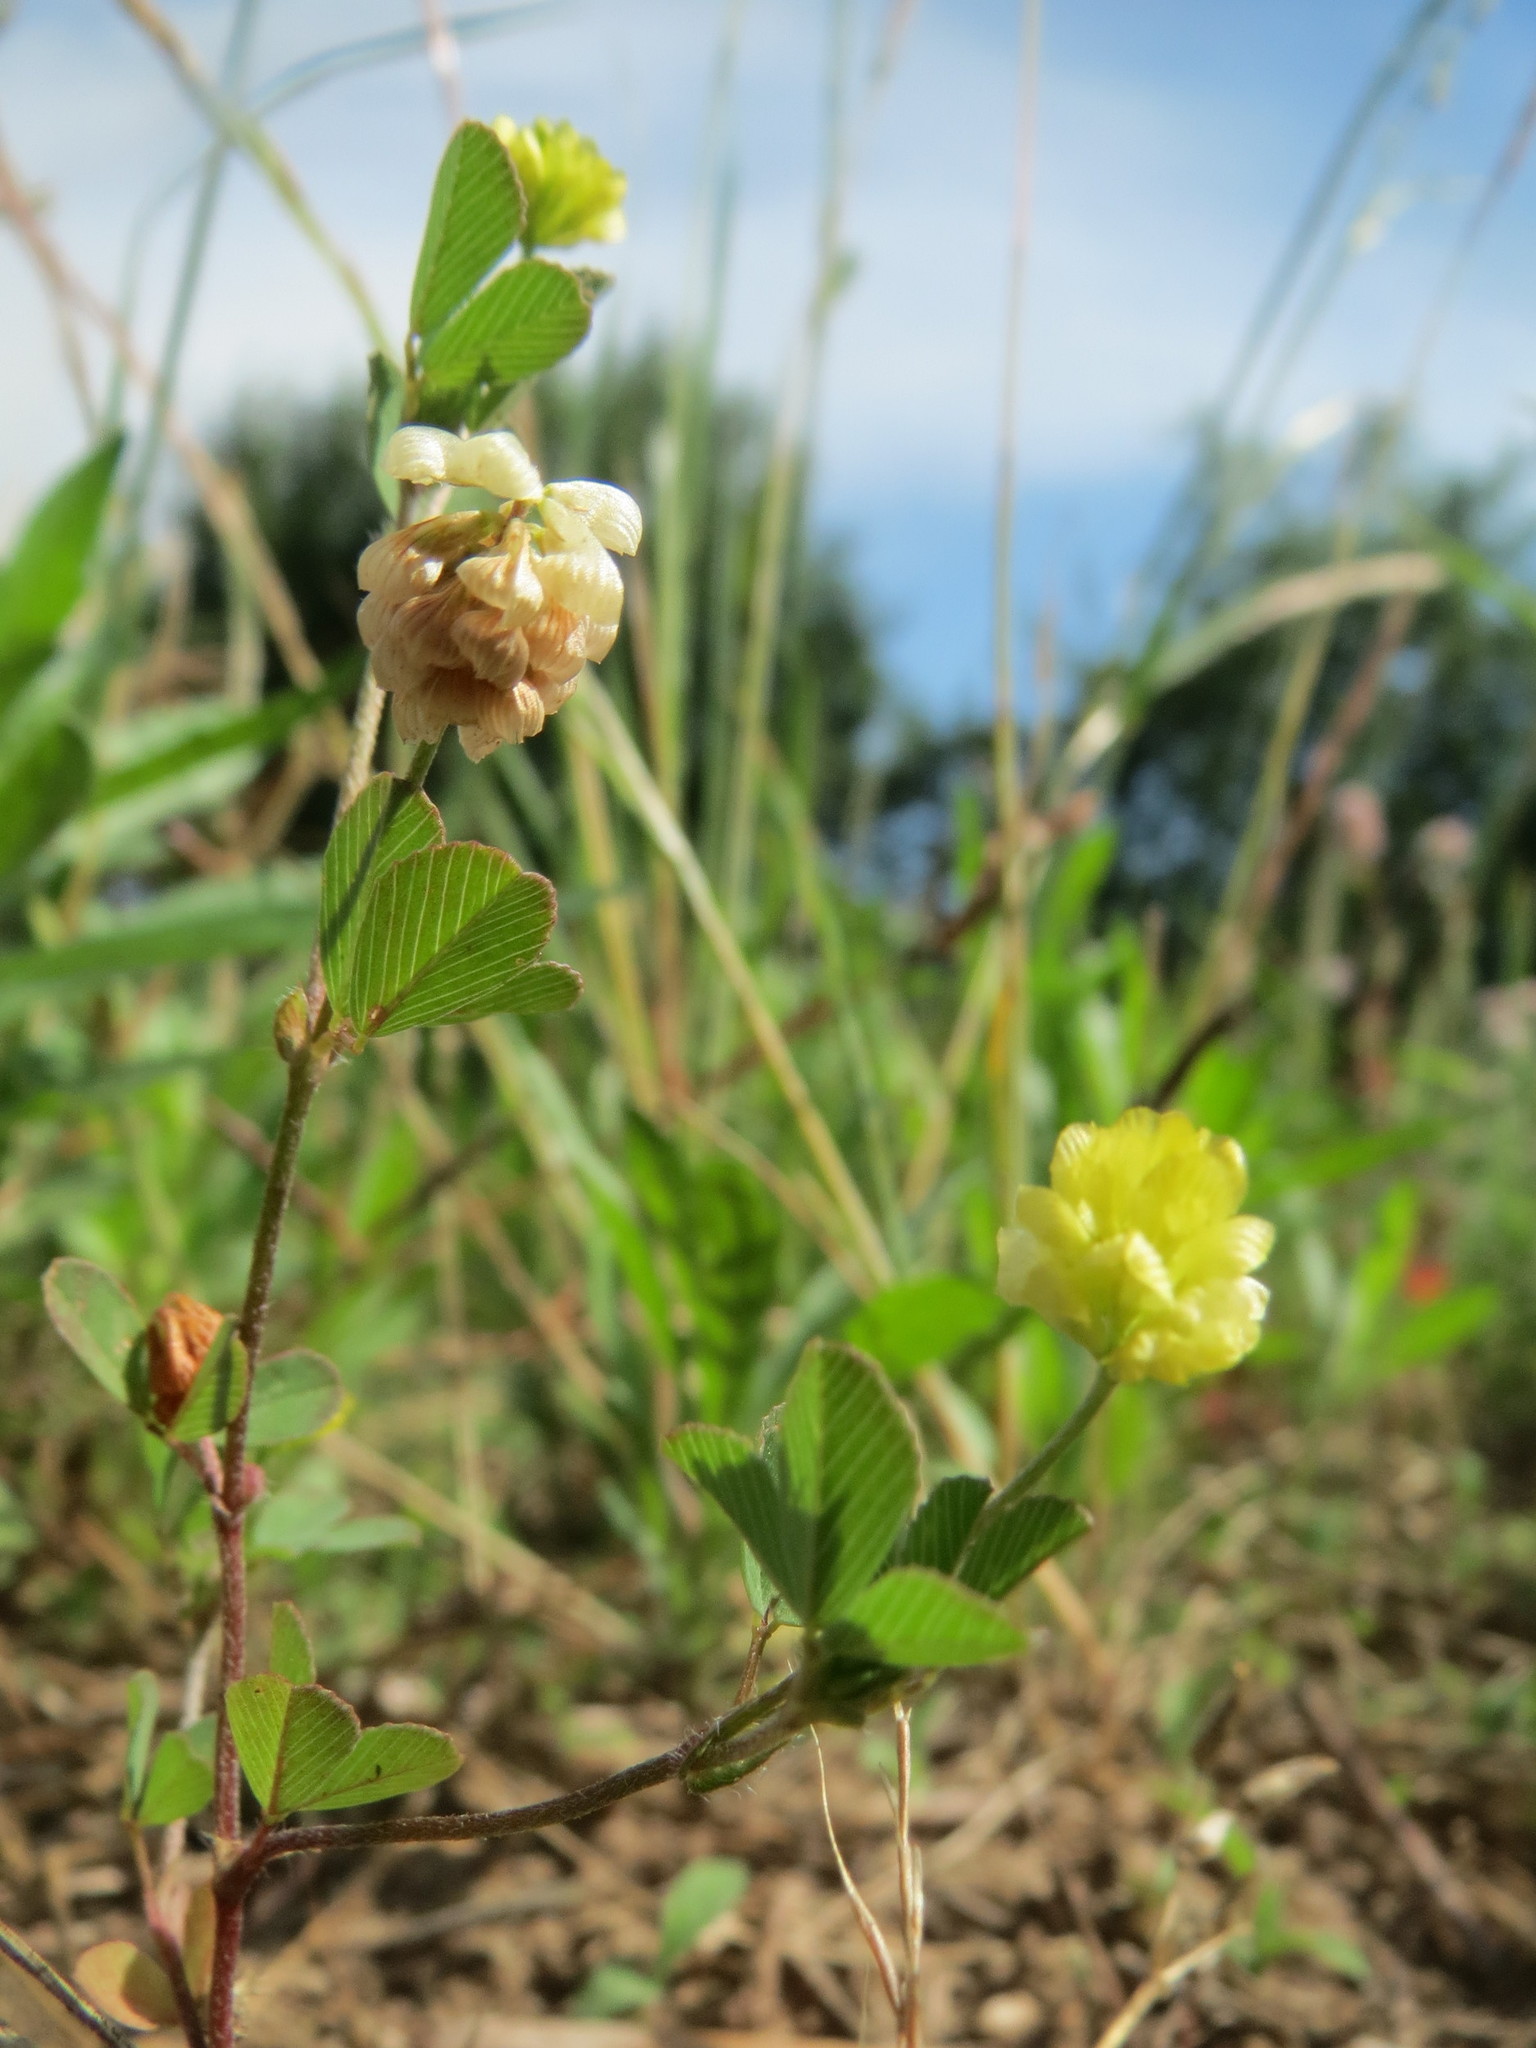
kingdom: Plantae
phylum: Tracheophyta
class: Magnoliopsida
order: Fabales
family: Fabaceae
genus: Trifolium
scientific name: Trifolium campestre
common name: Field clover
